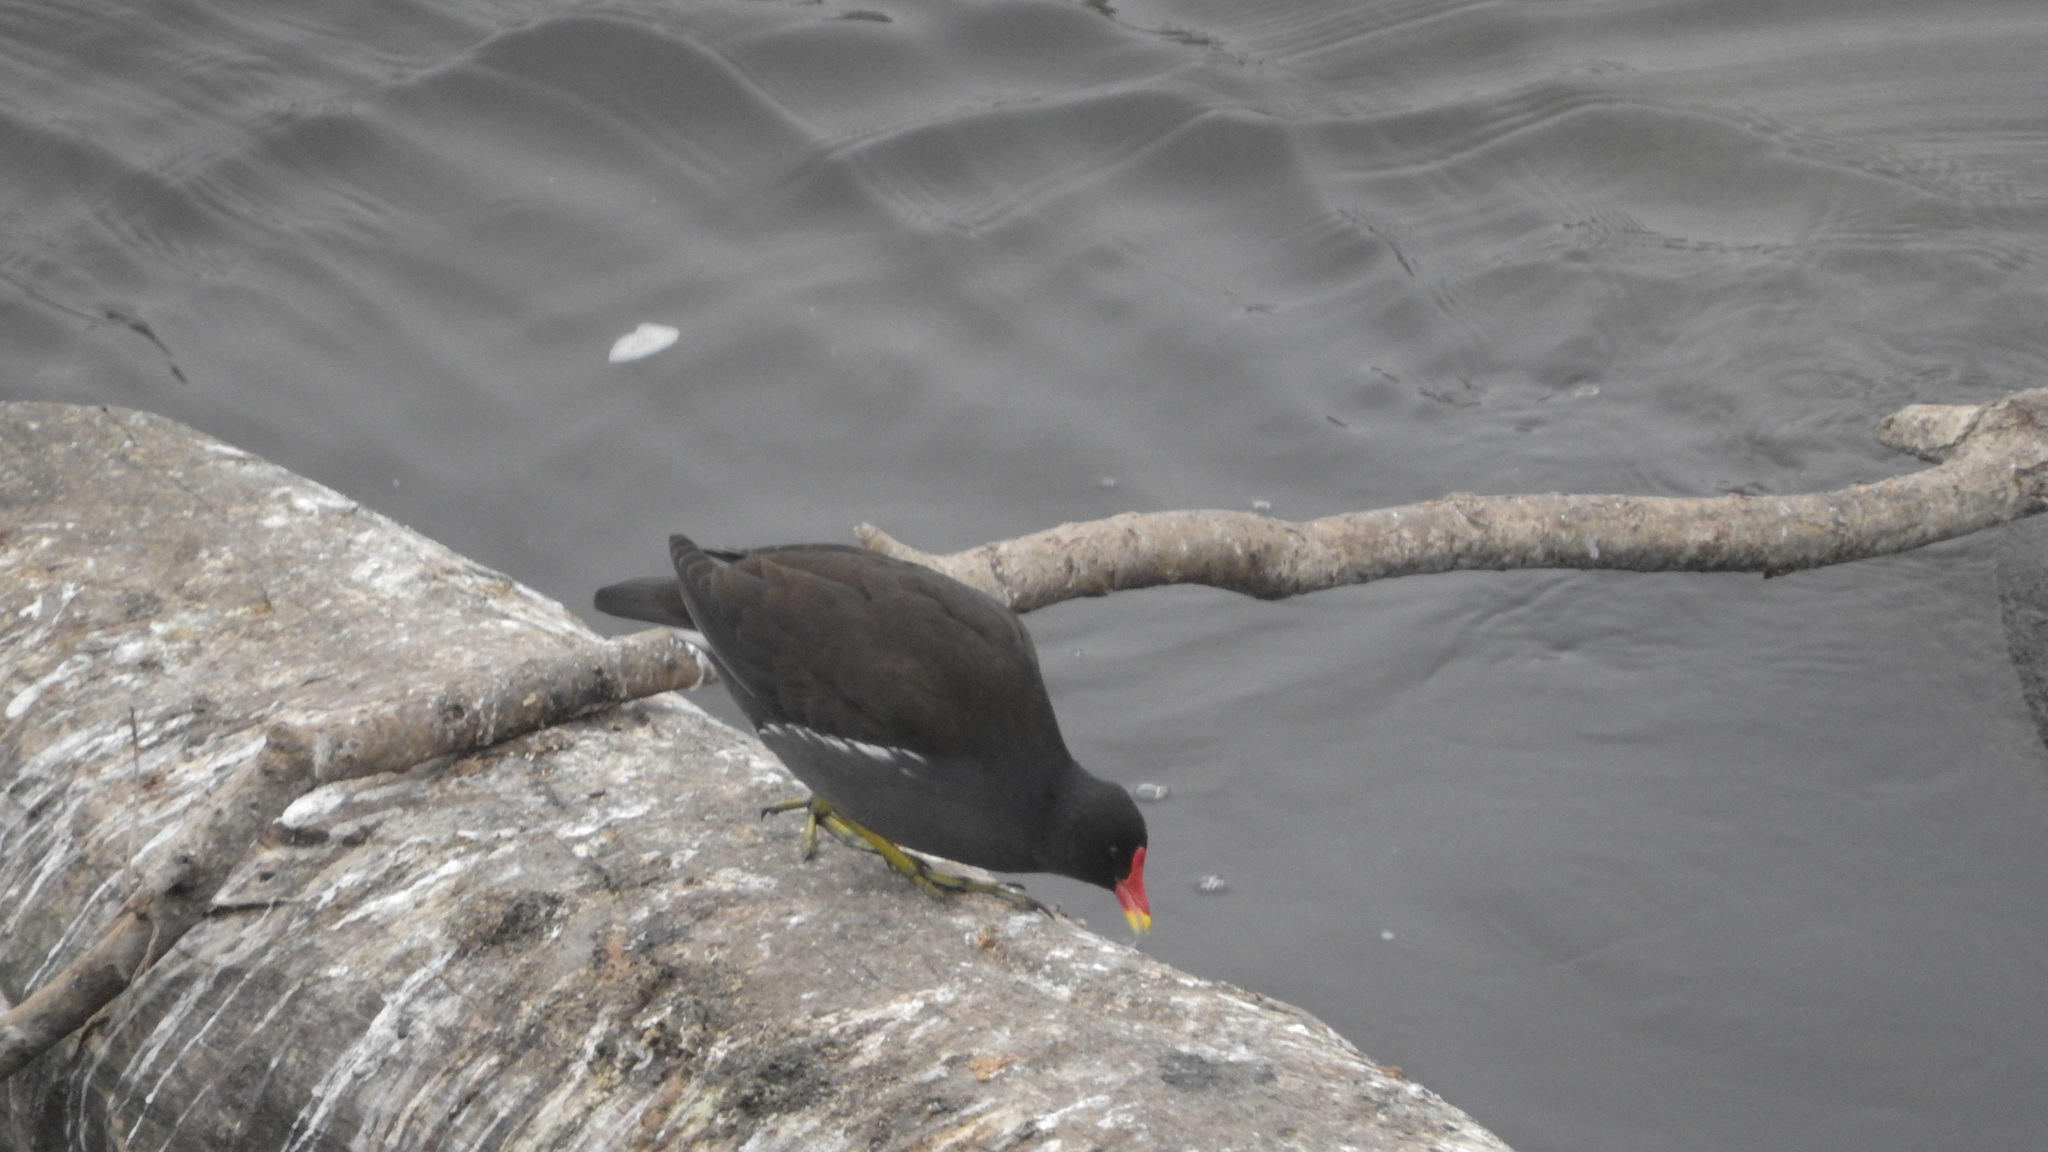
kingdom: Animalia
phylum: Chordata
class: Aves
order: Gruiformes
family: Rallidae
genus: Gallinula
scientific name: Gallinula chloropus
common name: Common moorhen
